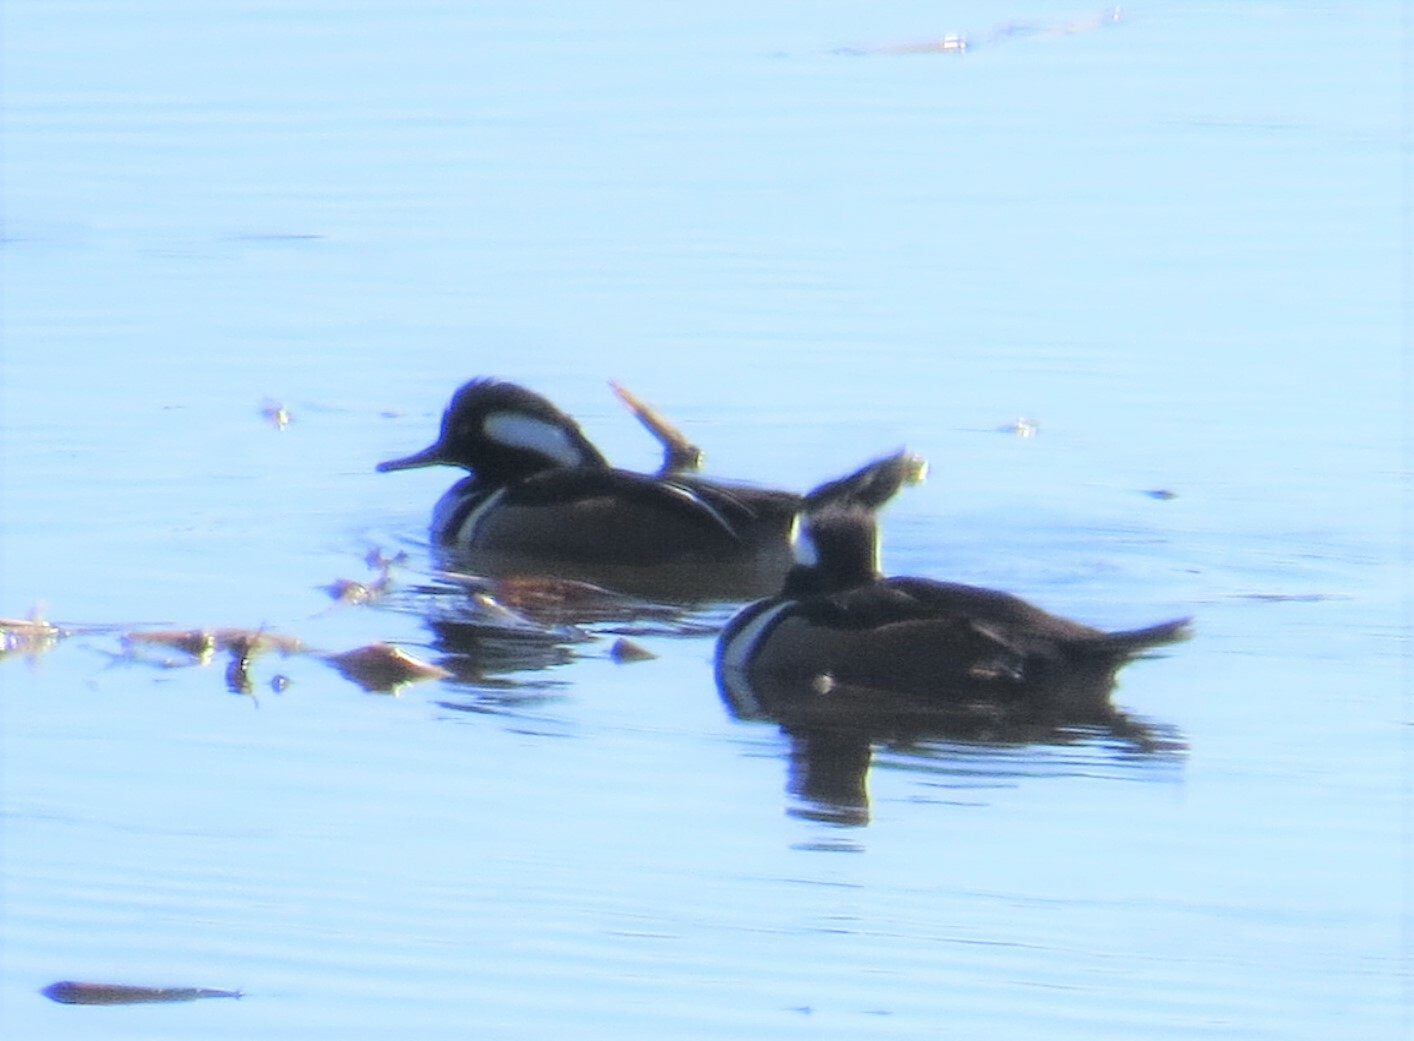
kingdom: Animalia
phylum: Chordata
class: Aves
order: Anseriformes
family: Anatidae
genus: Lophodytes
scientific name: Lophodytes cucullatus
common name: Hooded merganser
